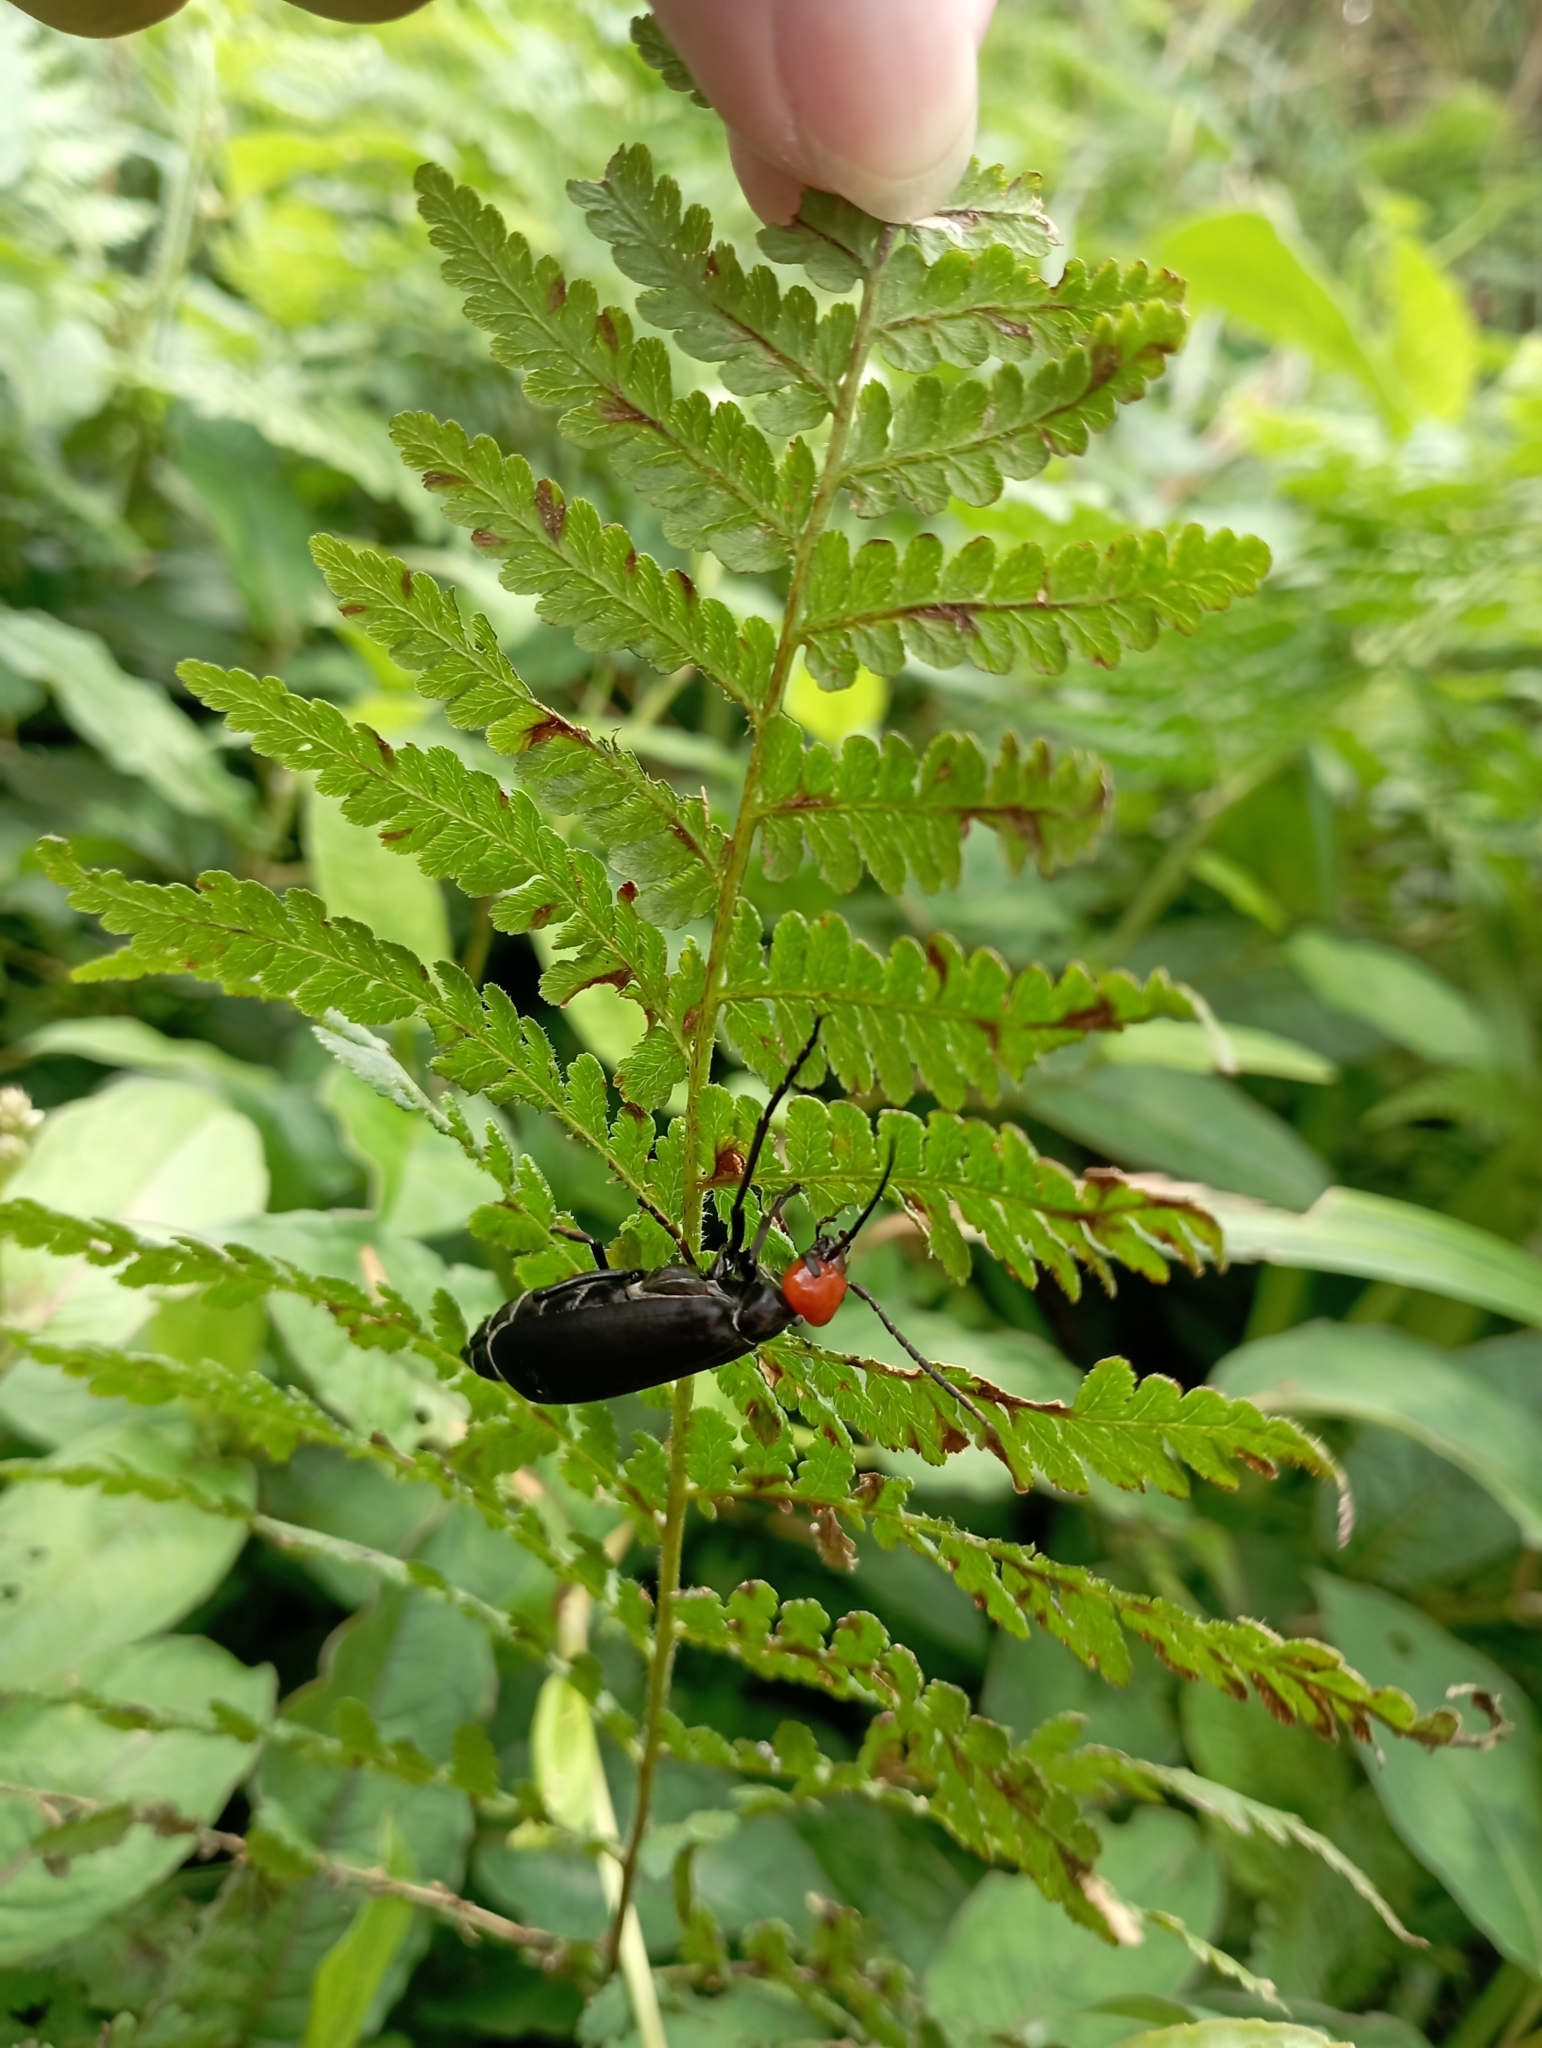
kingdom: Animalia
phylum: Arthropoda
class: Insecta
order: Coleoptera
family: Meloidae
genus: Epicauta
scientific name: Epicauta hirticornis
